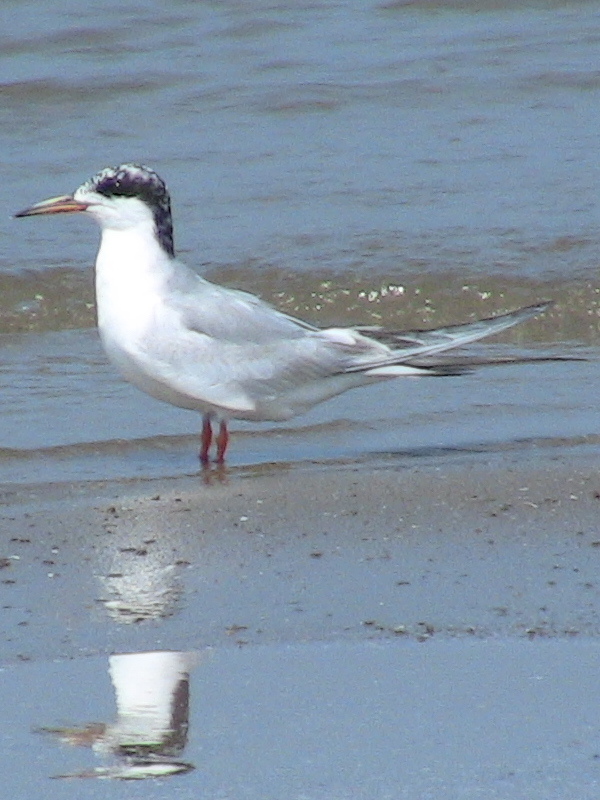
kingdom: Animalia
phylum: Chordata
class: Aves
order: Charadriiformes
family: Laridae
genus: Sterna
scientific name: Sterna forsteri
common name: Forster's tern
